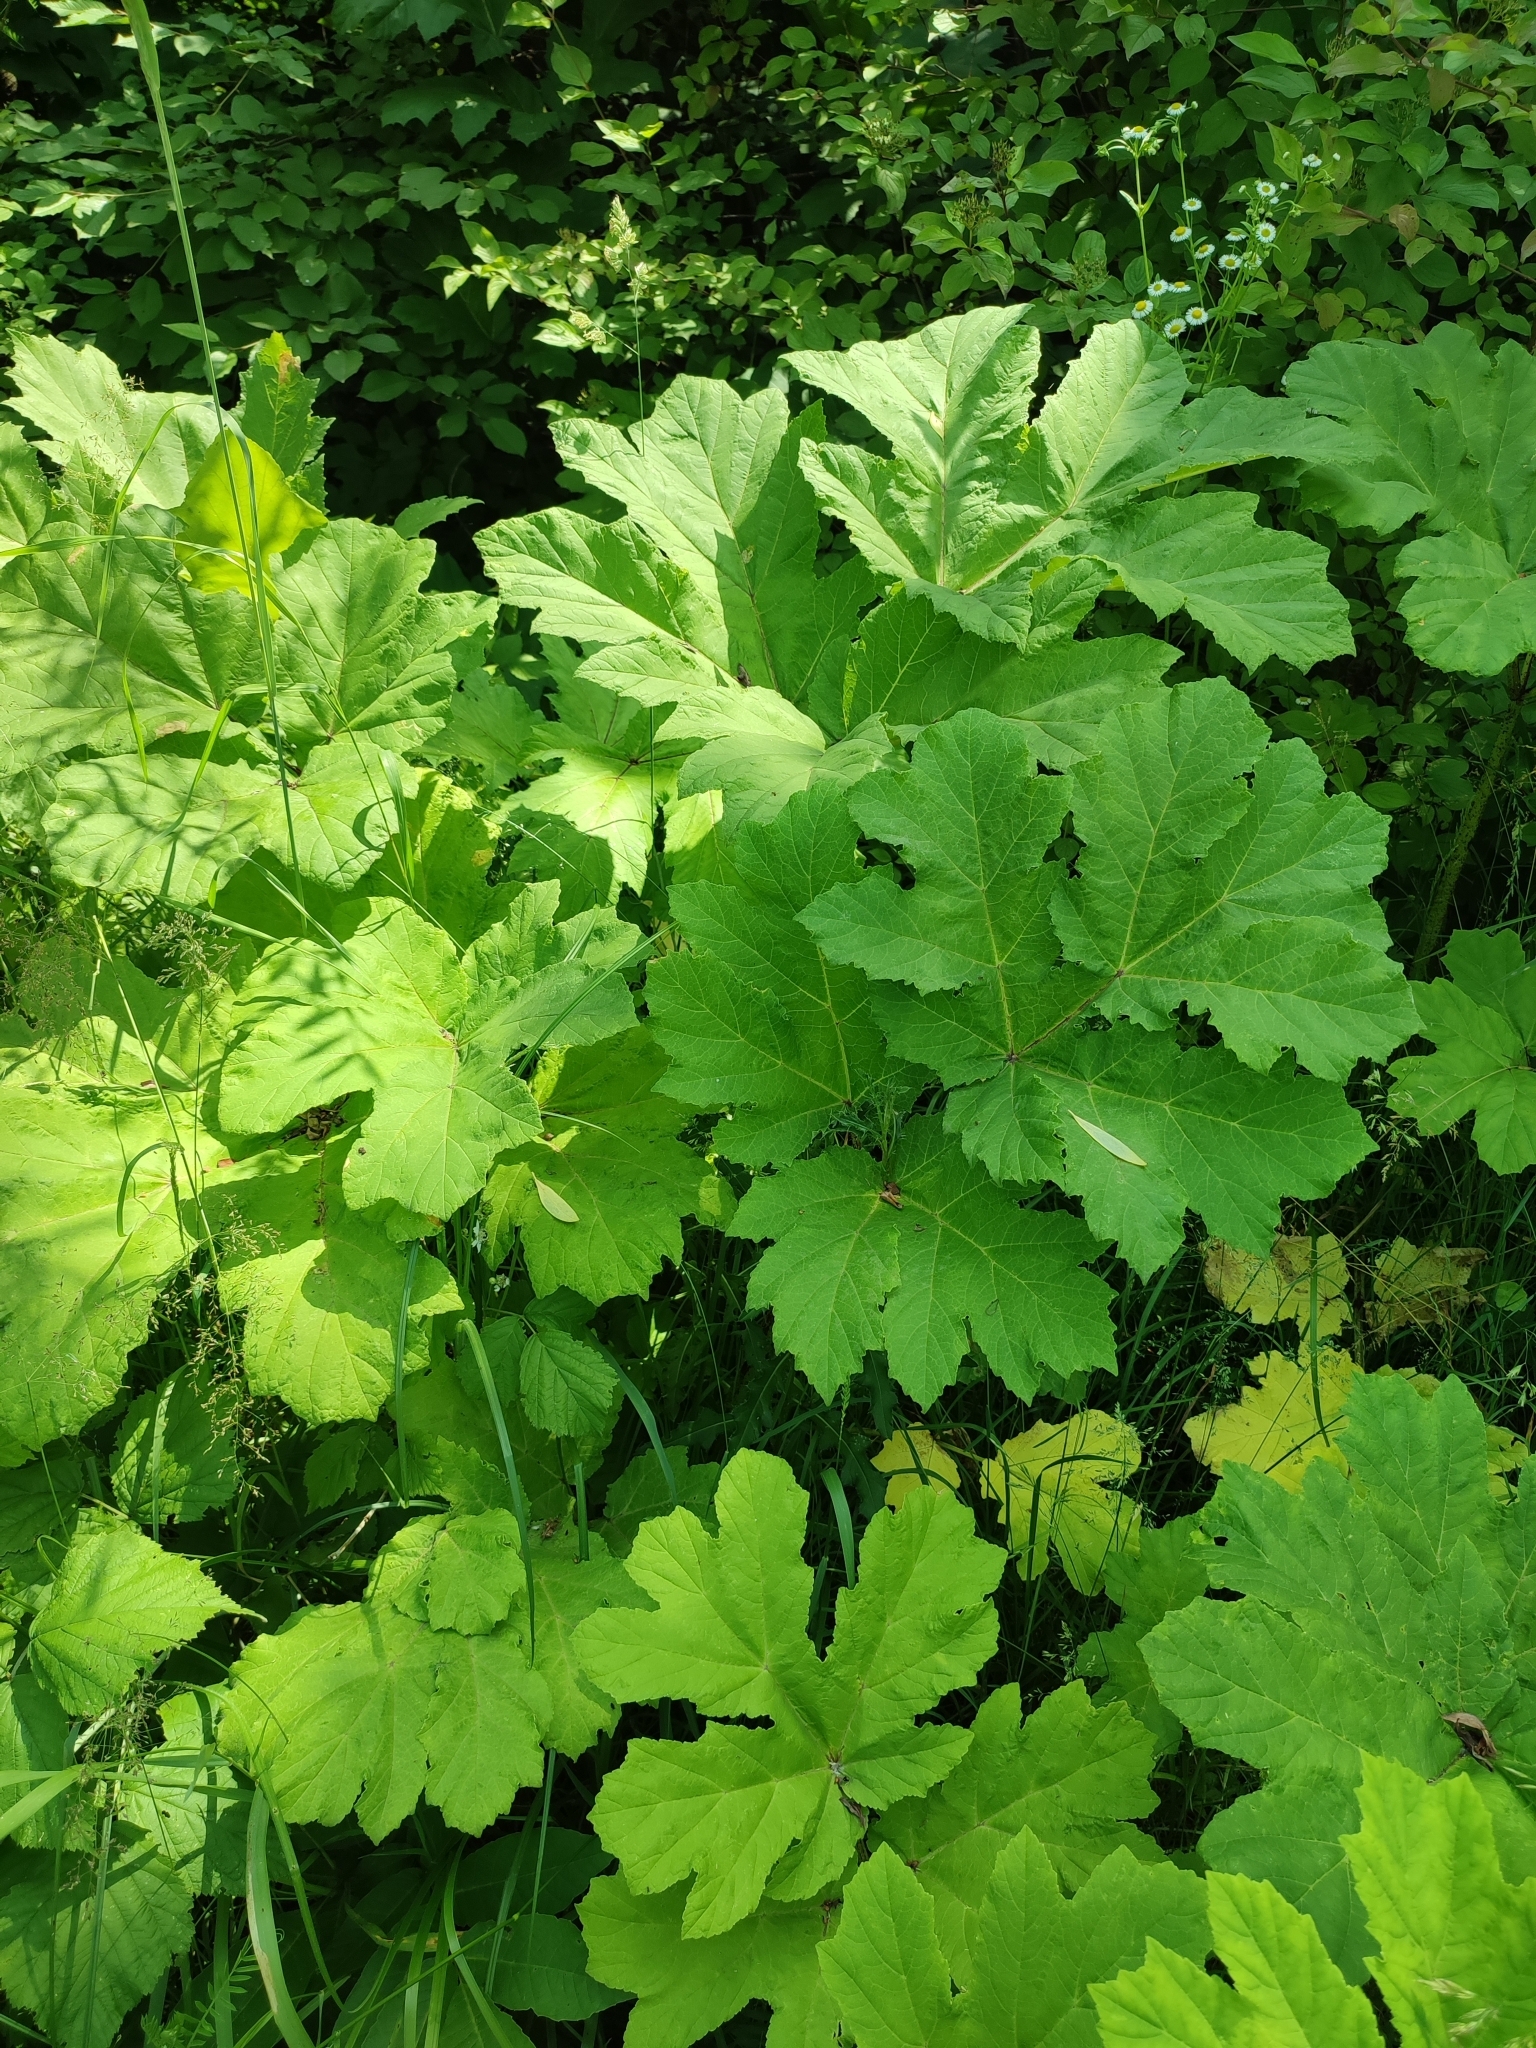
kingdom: Plantae
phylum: Tracheophyta
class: Magnoliopsida
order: Apiales
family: Apiaceae
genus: Heracleum
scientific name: Heracleum sosnowskyi
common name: Sosnowsky's hogweed
